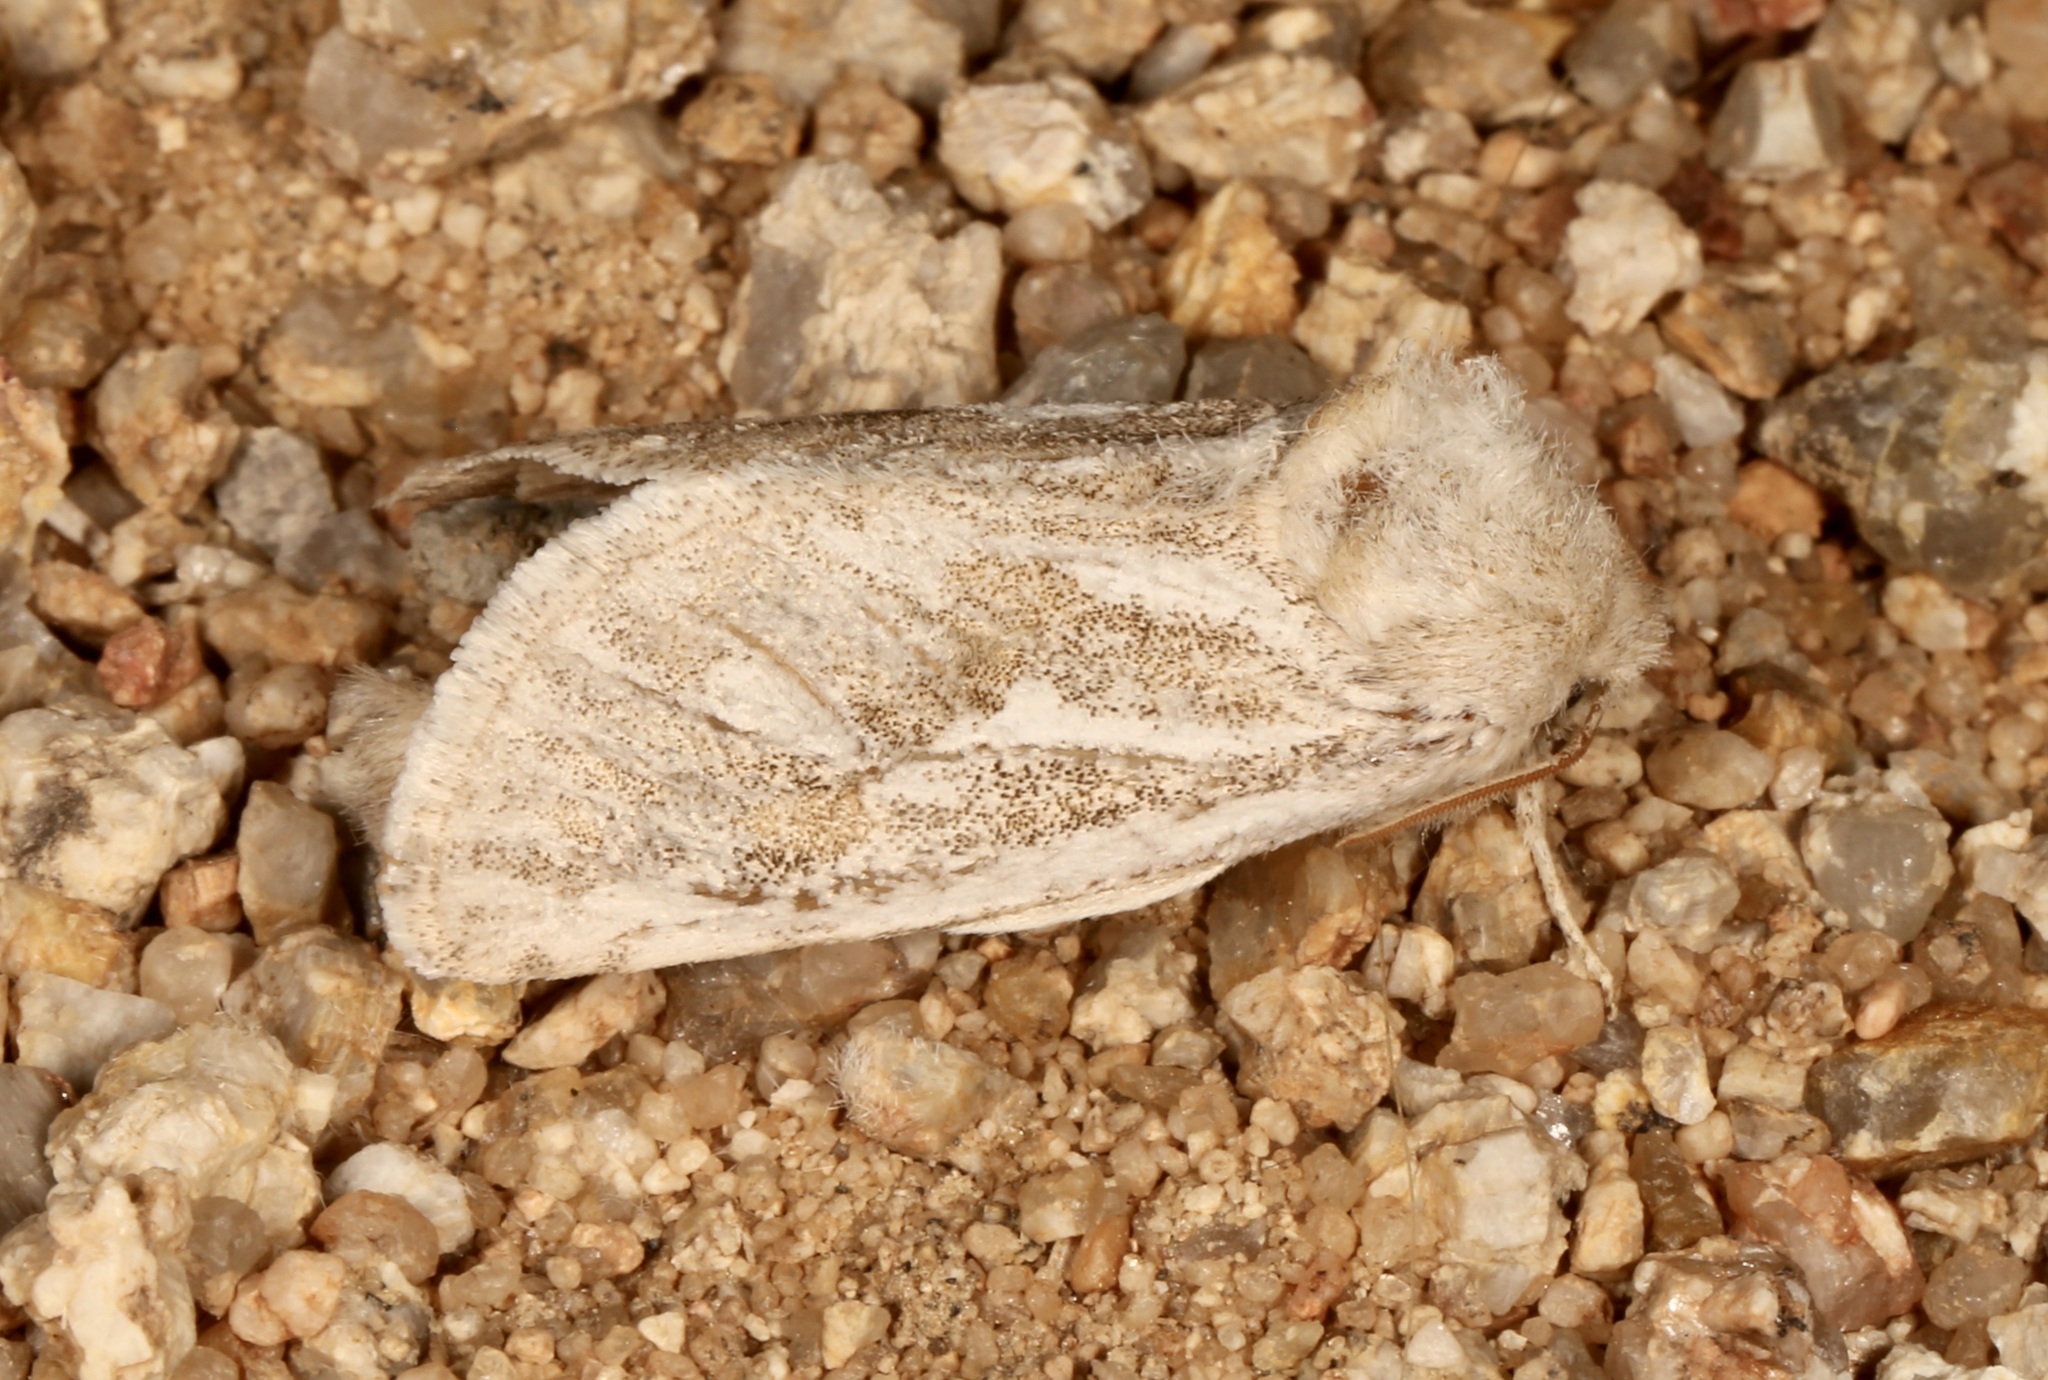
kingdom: Animalia
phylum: Arthropoda
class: Insecta
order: Lepidoptera
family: Cossidae
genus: Comadia
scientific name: Comadia henrici
